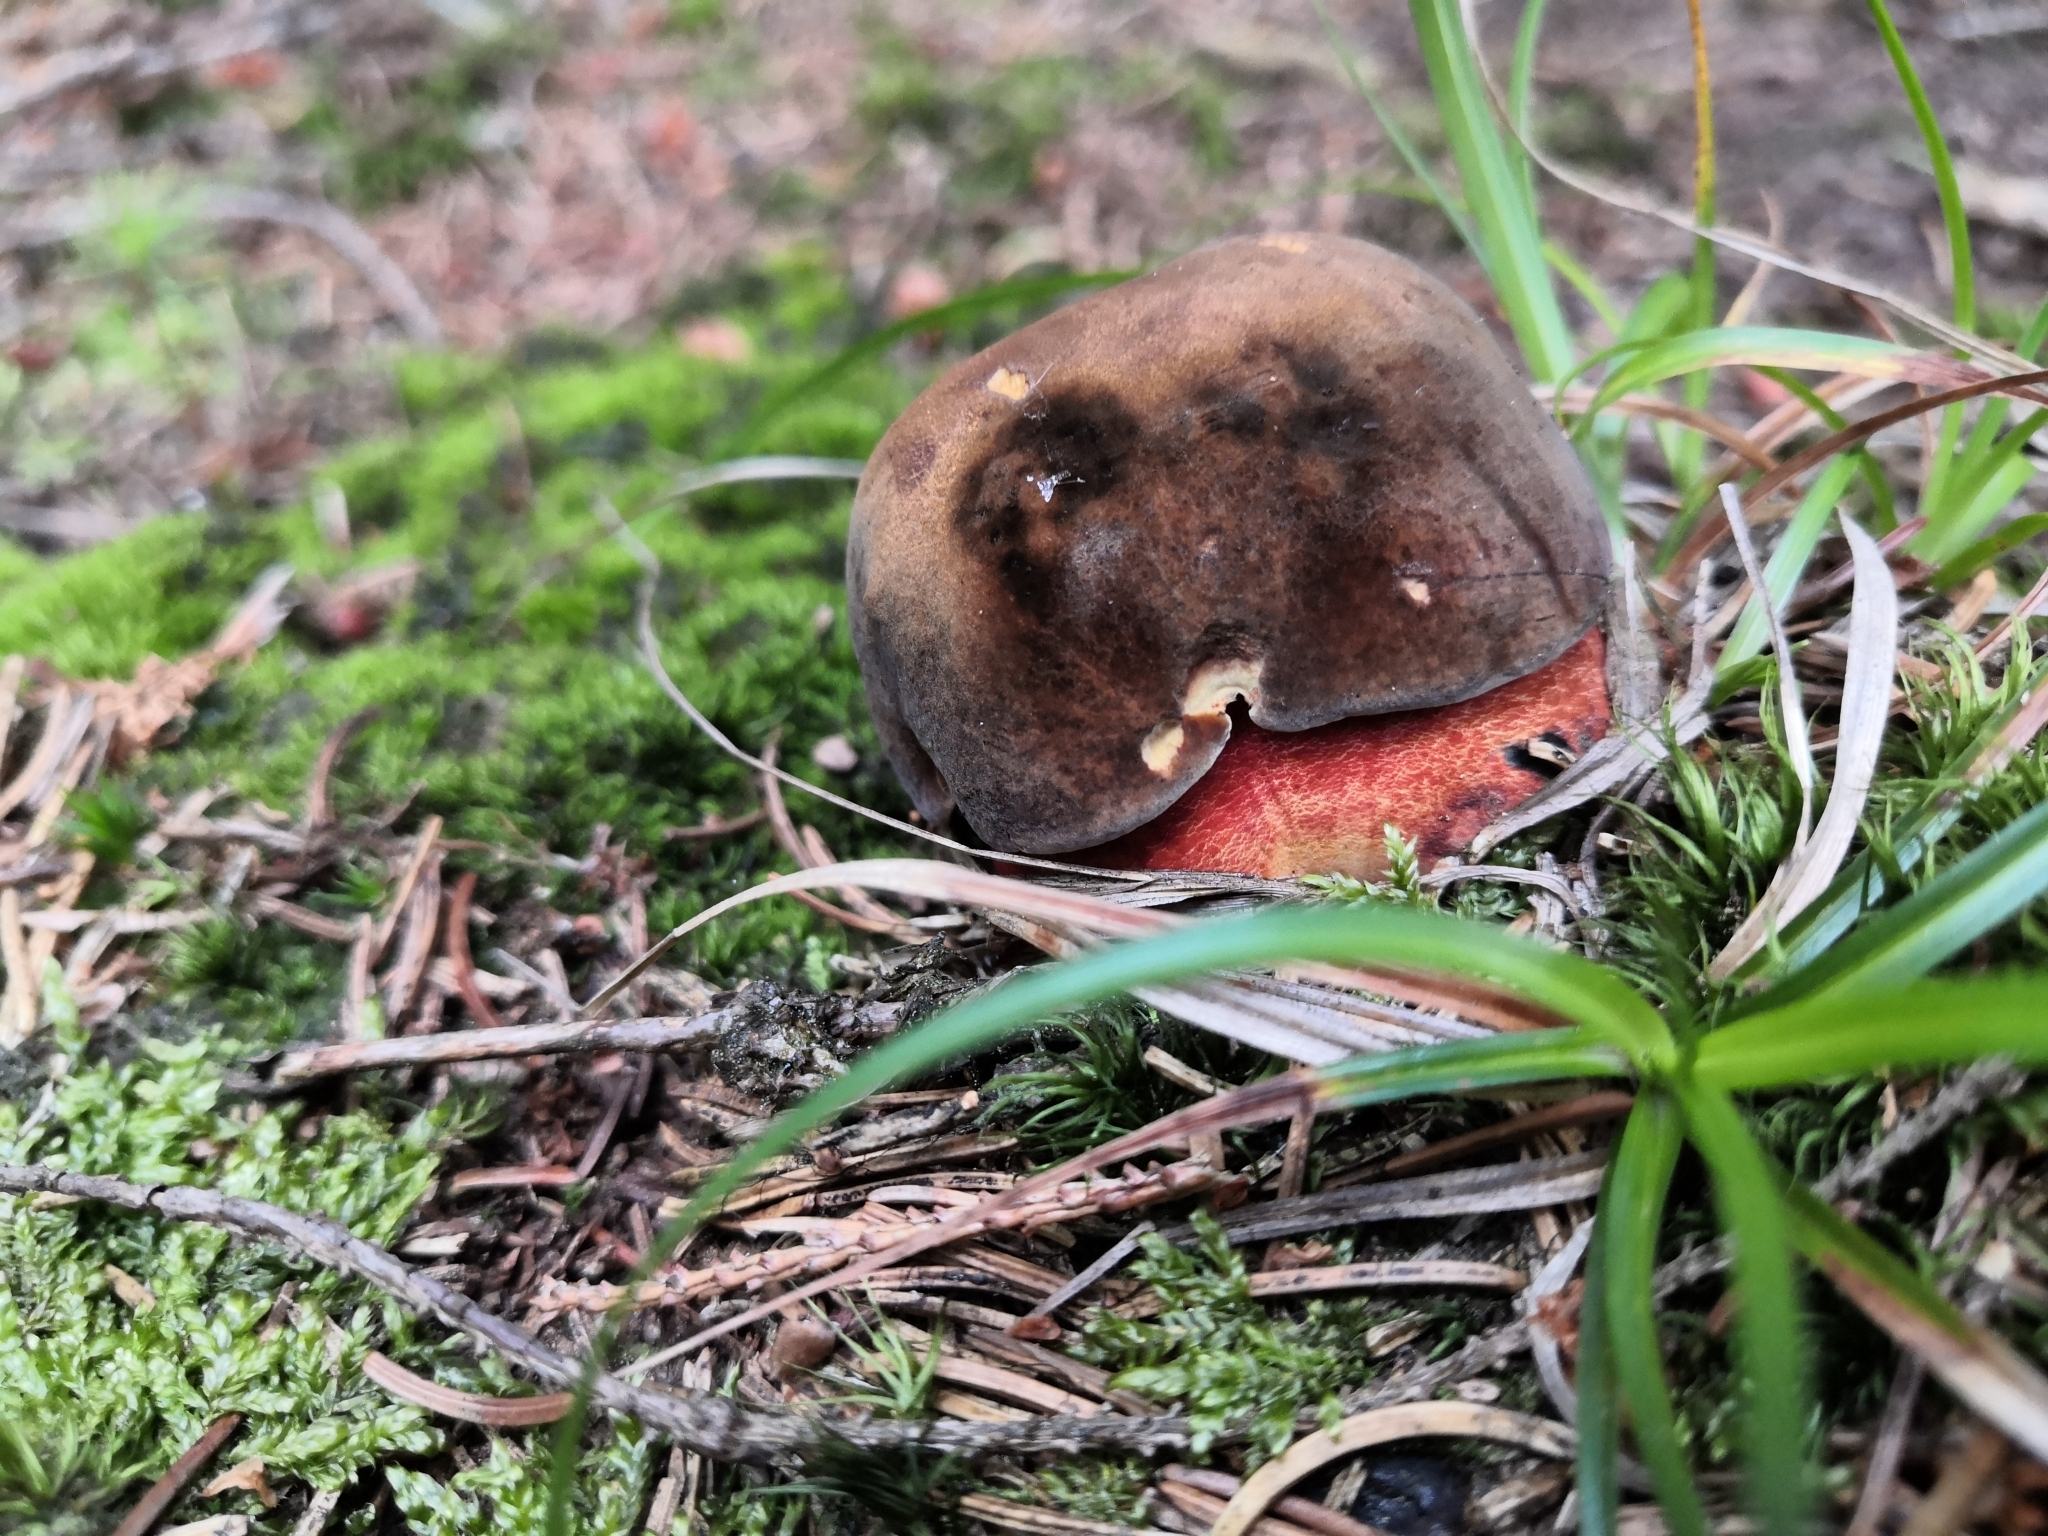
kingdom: Fungi
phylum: Basidiomycota
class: Agaricomycetes
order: Boletales
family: Boletaceae
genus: Neoboletus
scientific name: Neoboletus luridiformis
